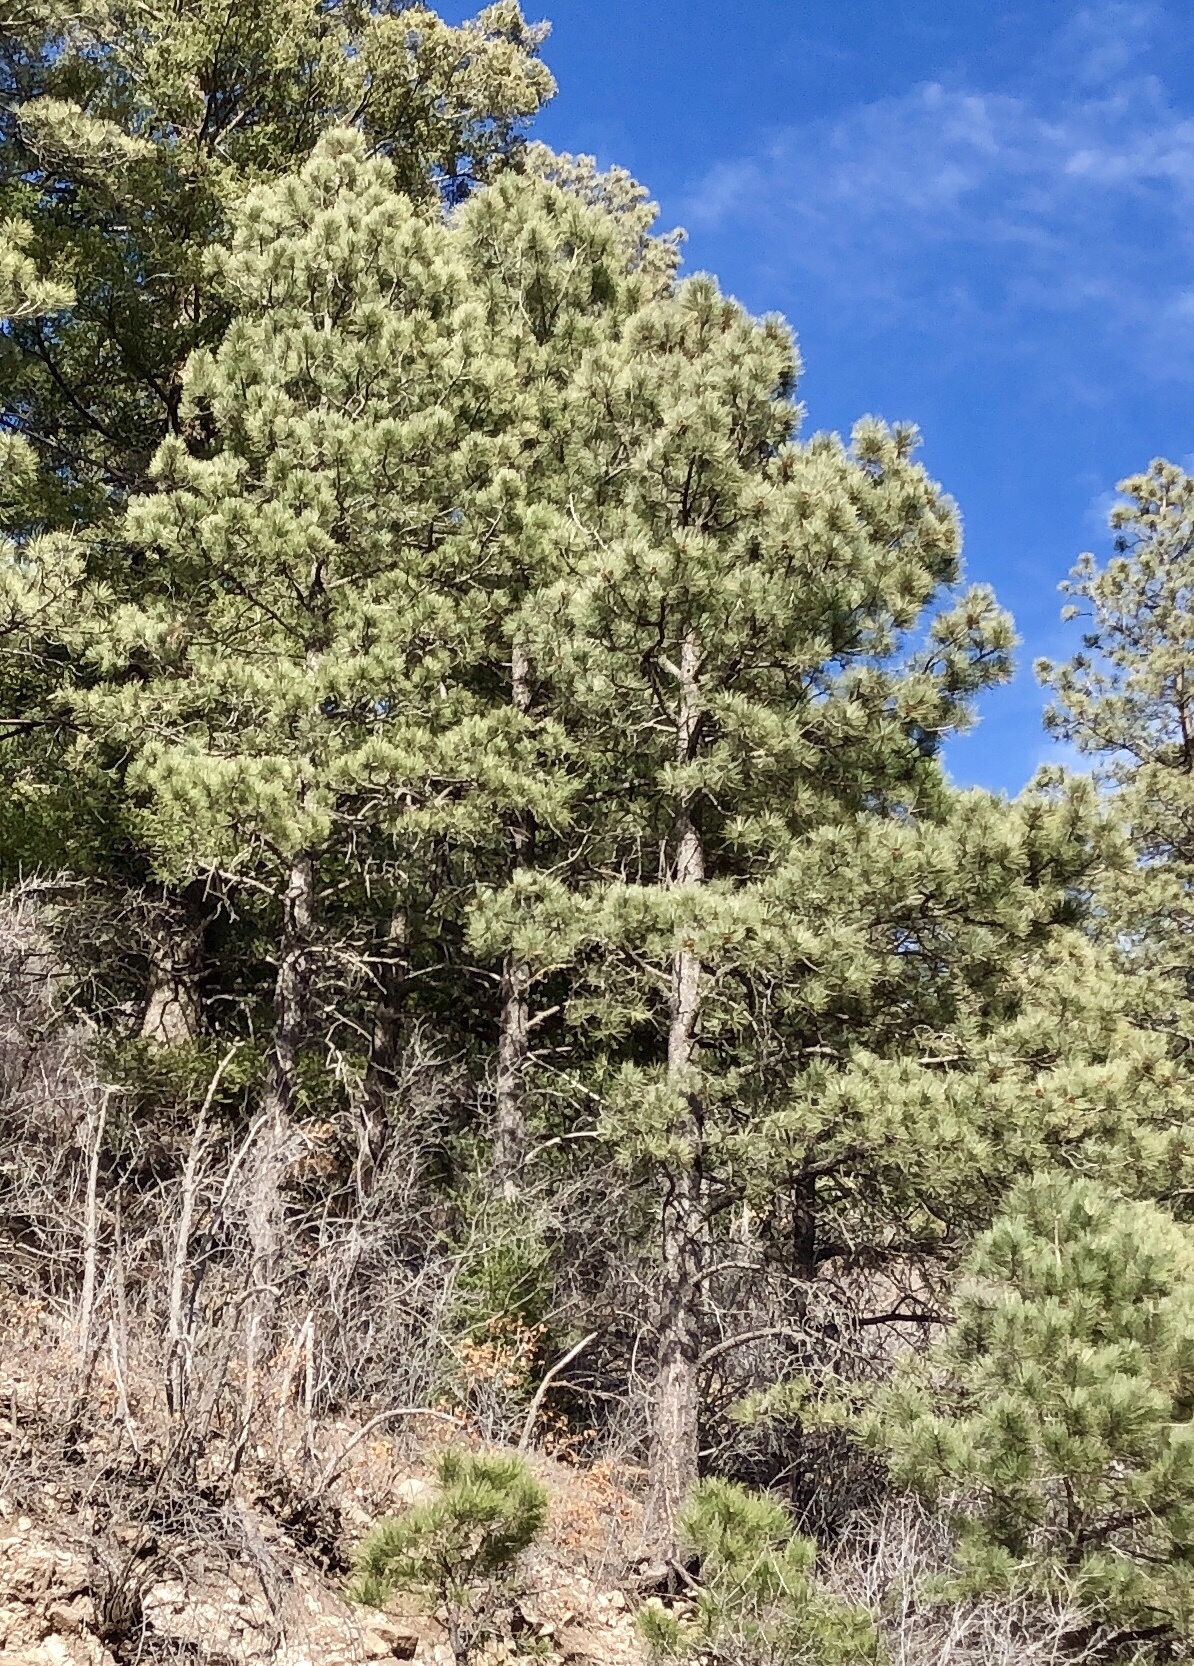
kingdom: Plantae
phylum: Tracheophyta
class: Pinopsida
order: Pinales
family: Pinaceae
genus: Pinus
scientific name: Pinus ponderosa
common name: Western yellow-pine
